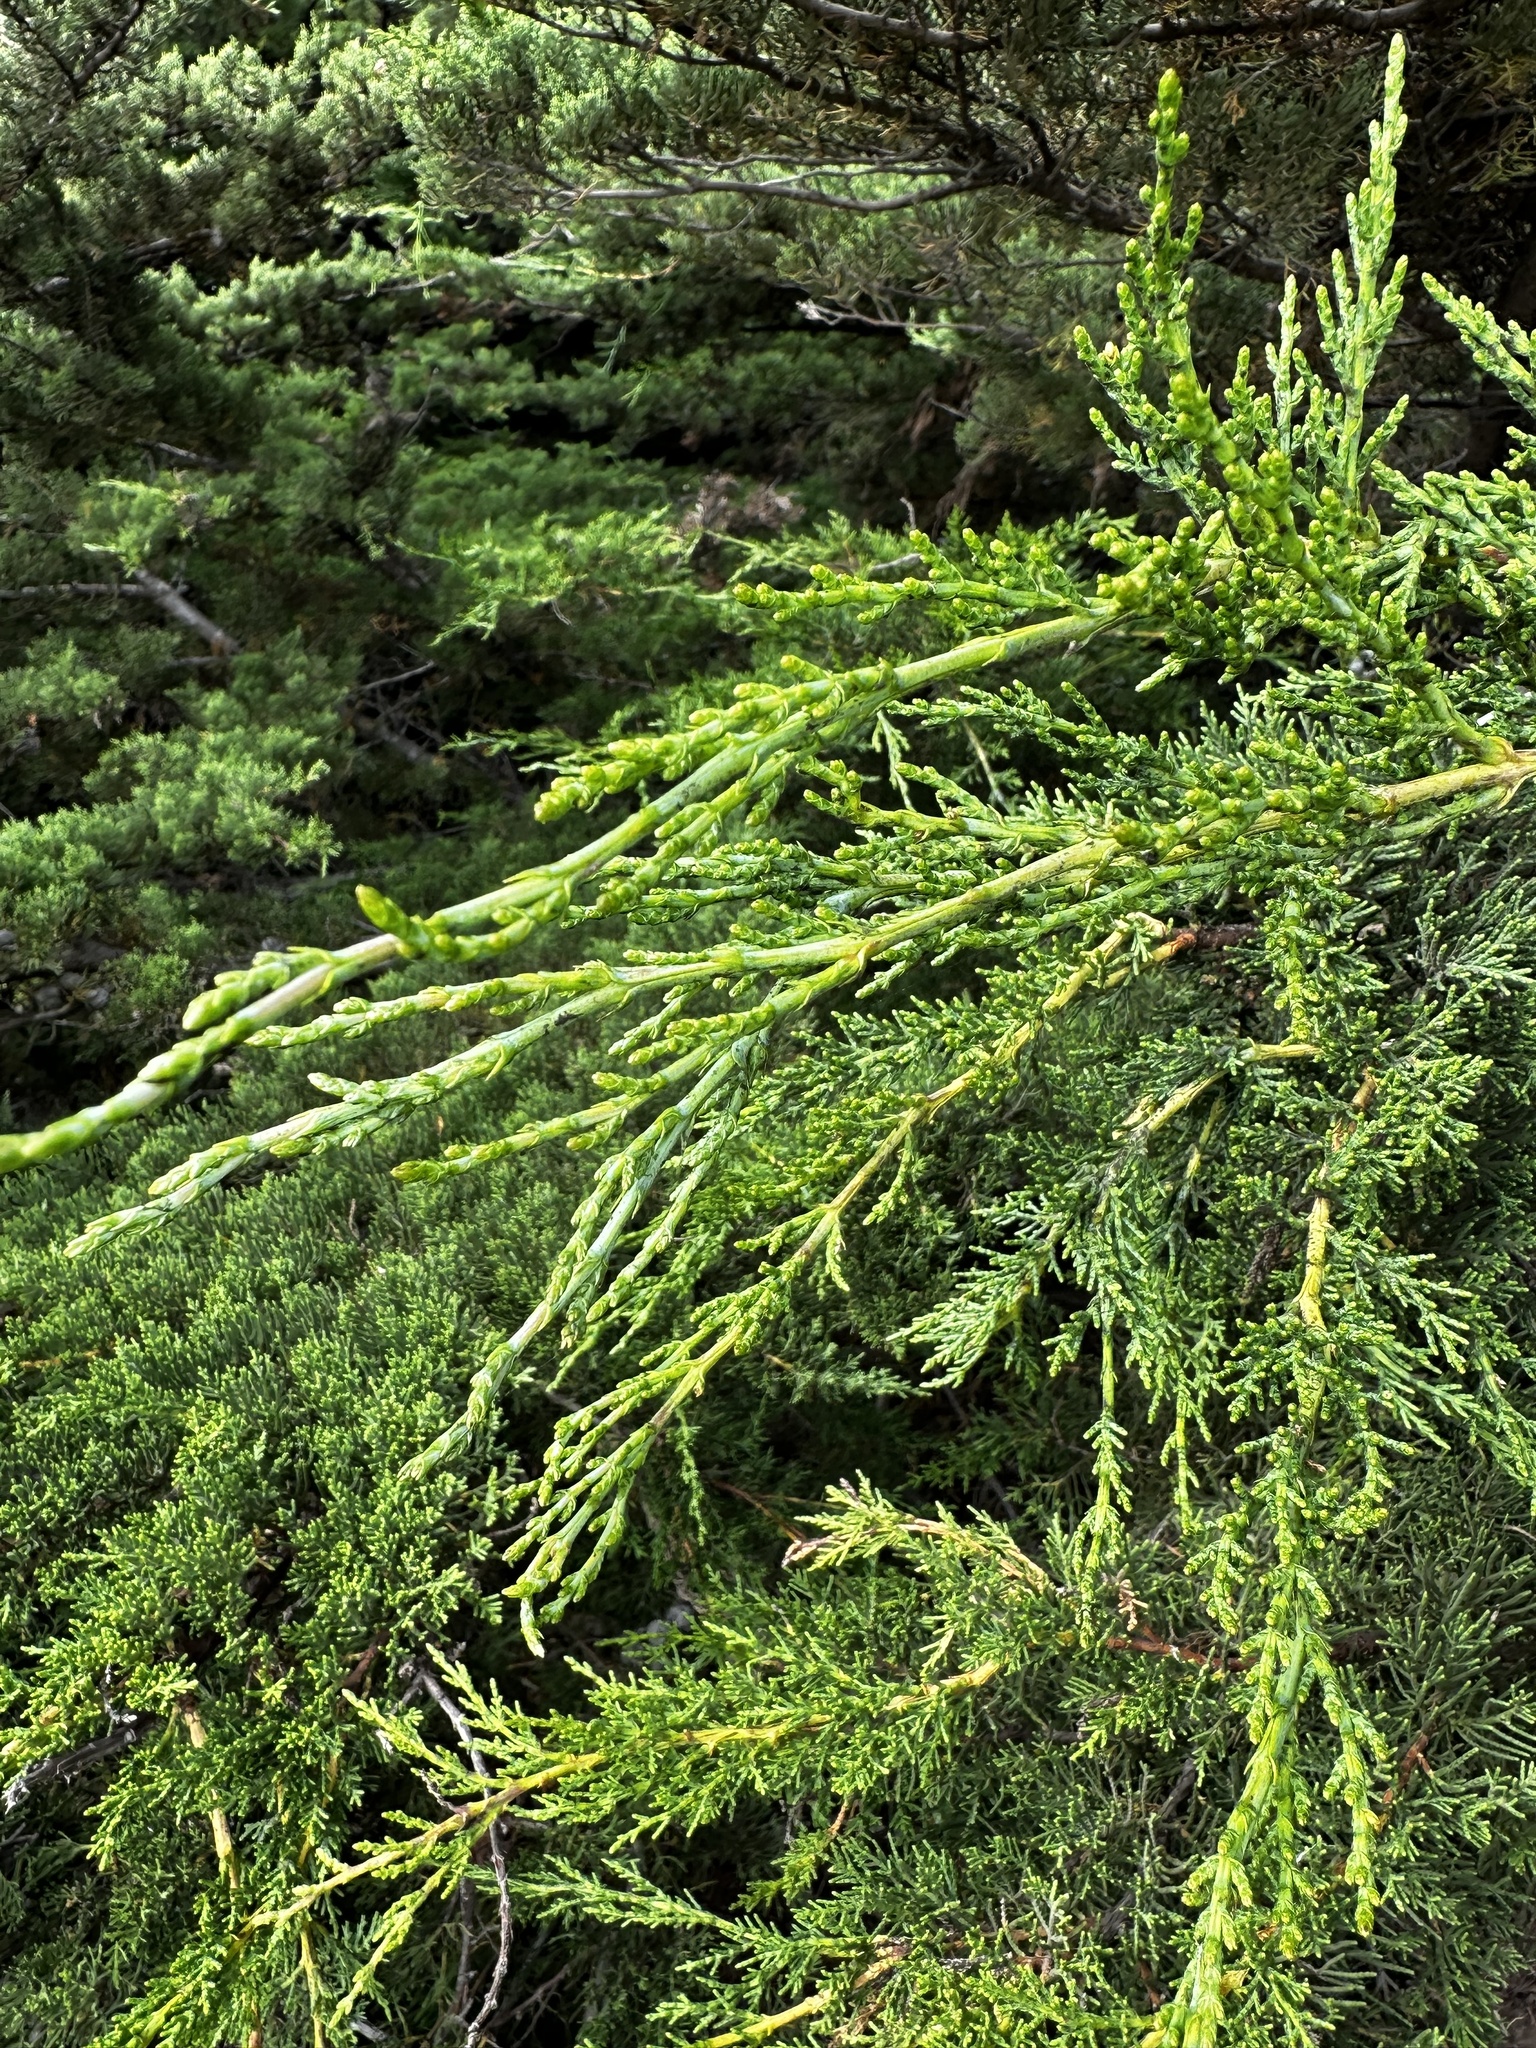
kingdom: Plantae
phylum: Tracheophyta
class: Pinopsida
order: Pinales
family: Cupressaceae
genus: Cupressus
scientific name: Cupressus macrocarpa
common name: Monterey cypress
